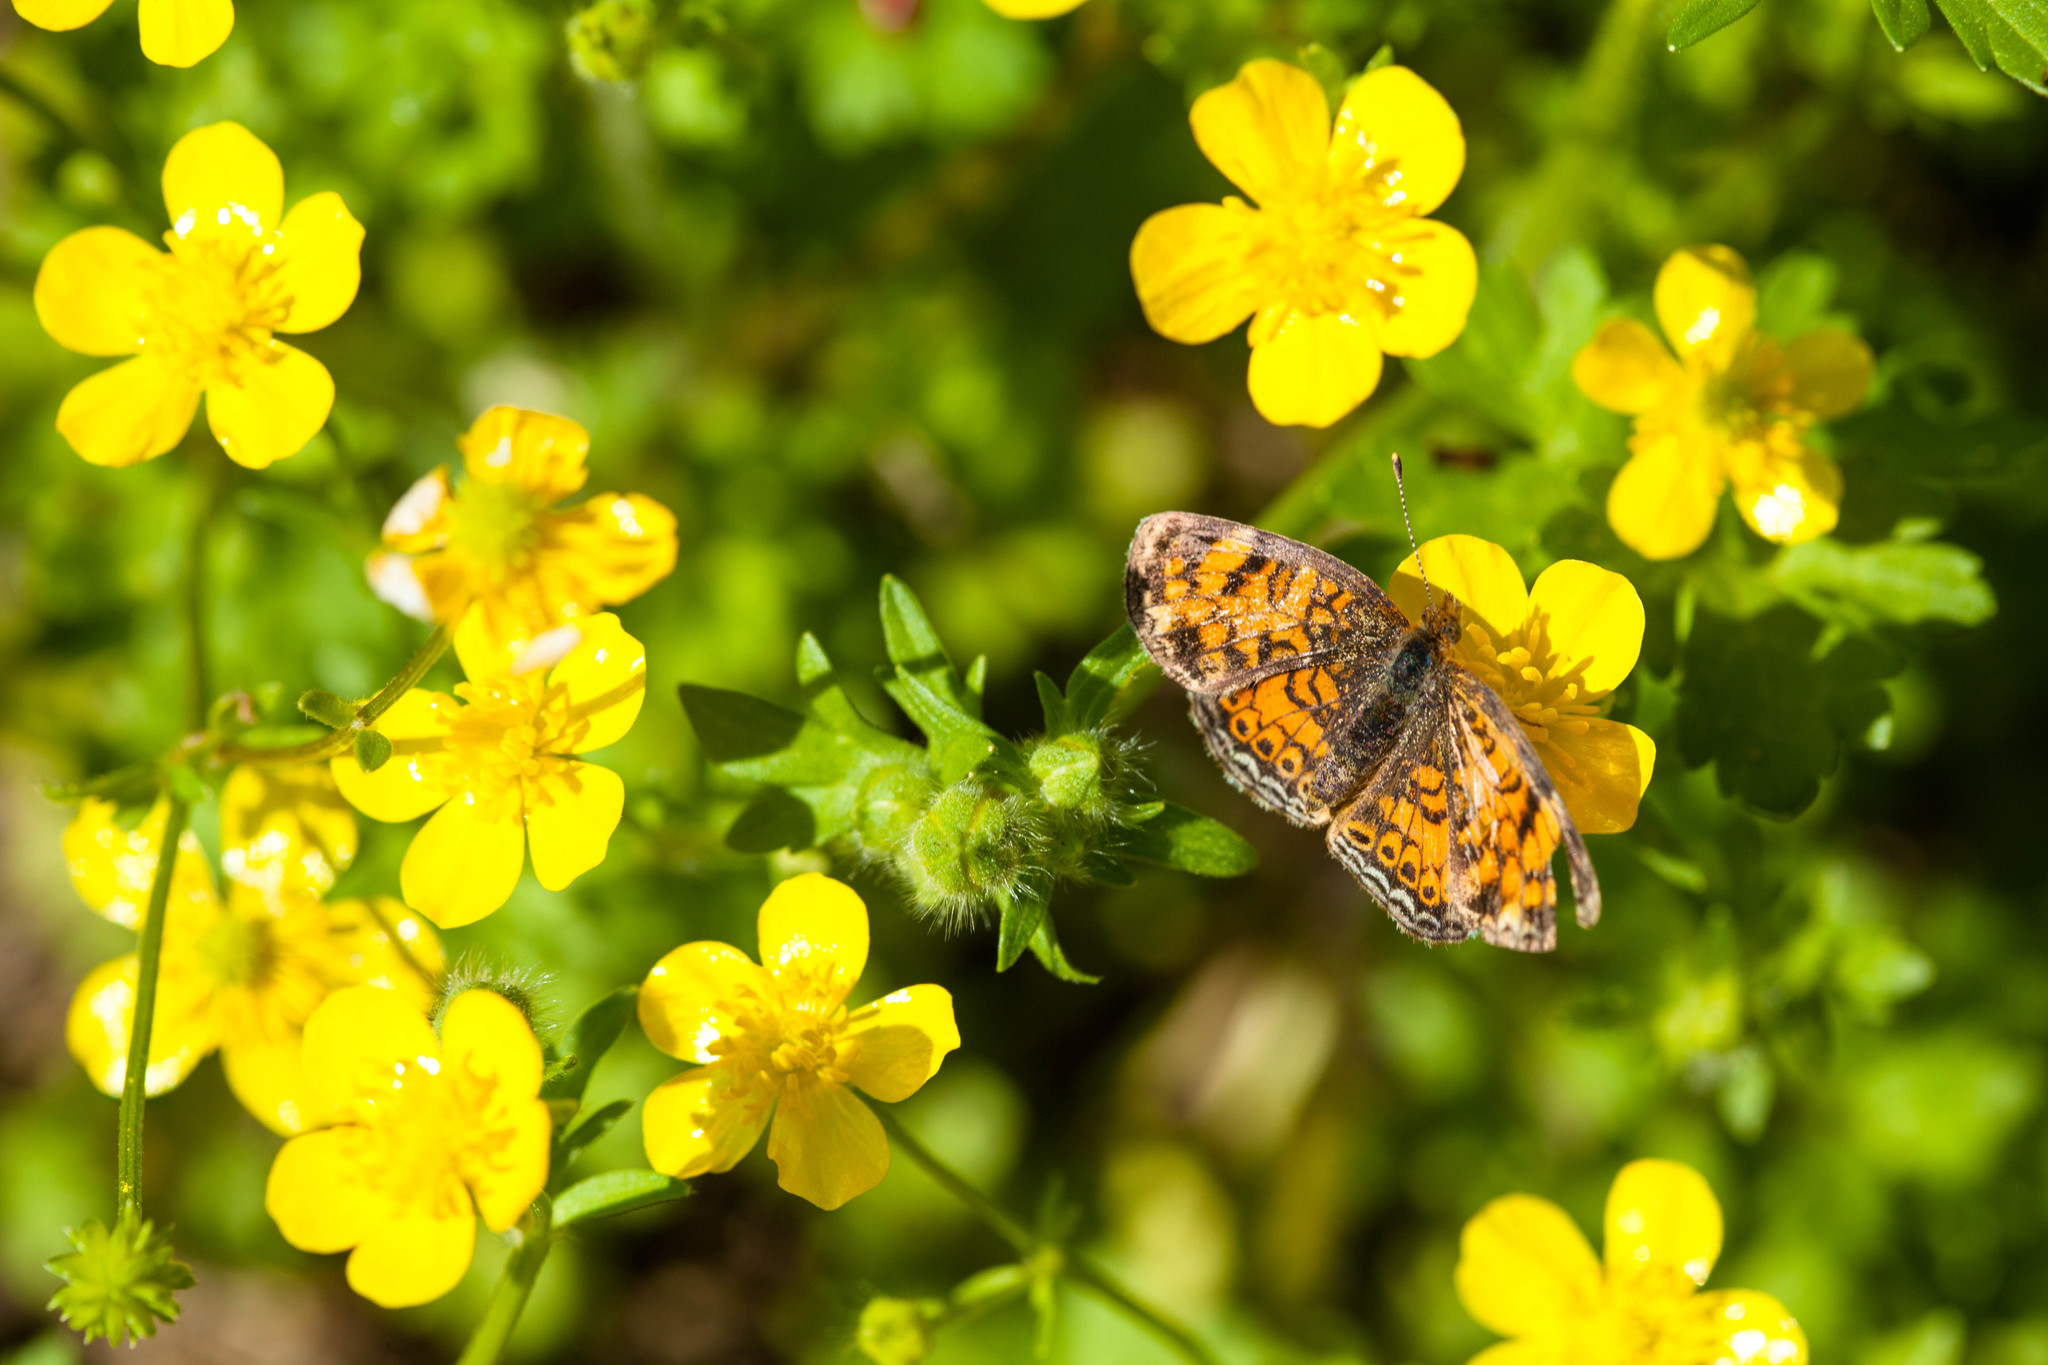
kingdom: Animalia
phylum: Arthropoda
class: Insecta
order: Lepidoptera
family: Nymphalidae
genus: Phyciodes
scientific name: Phyciodes tharos
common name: Pearl crescent
